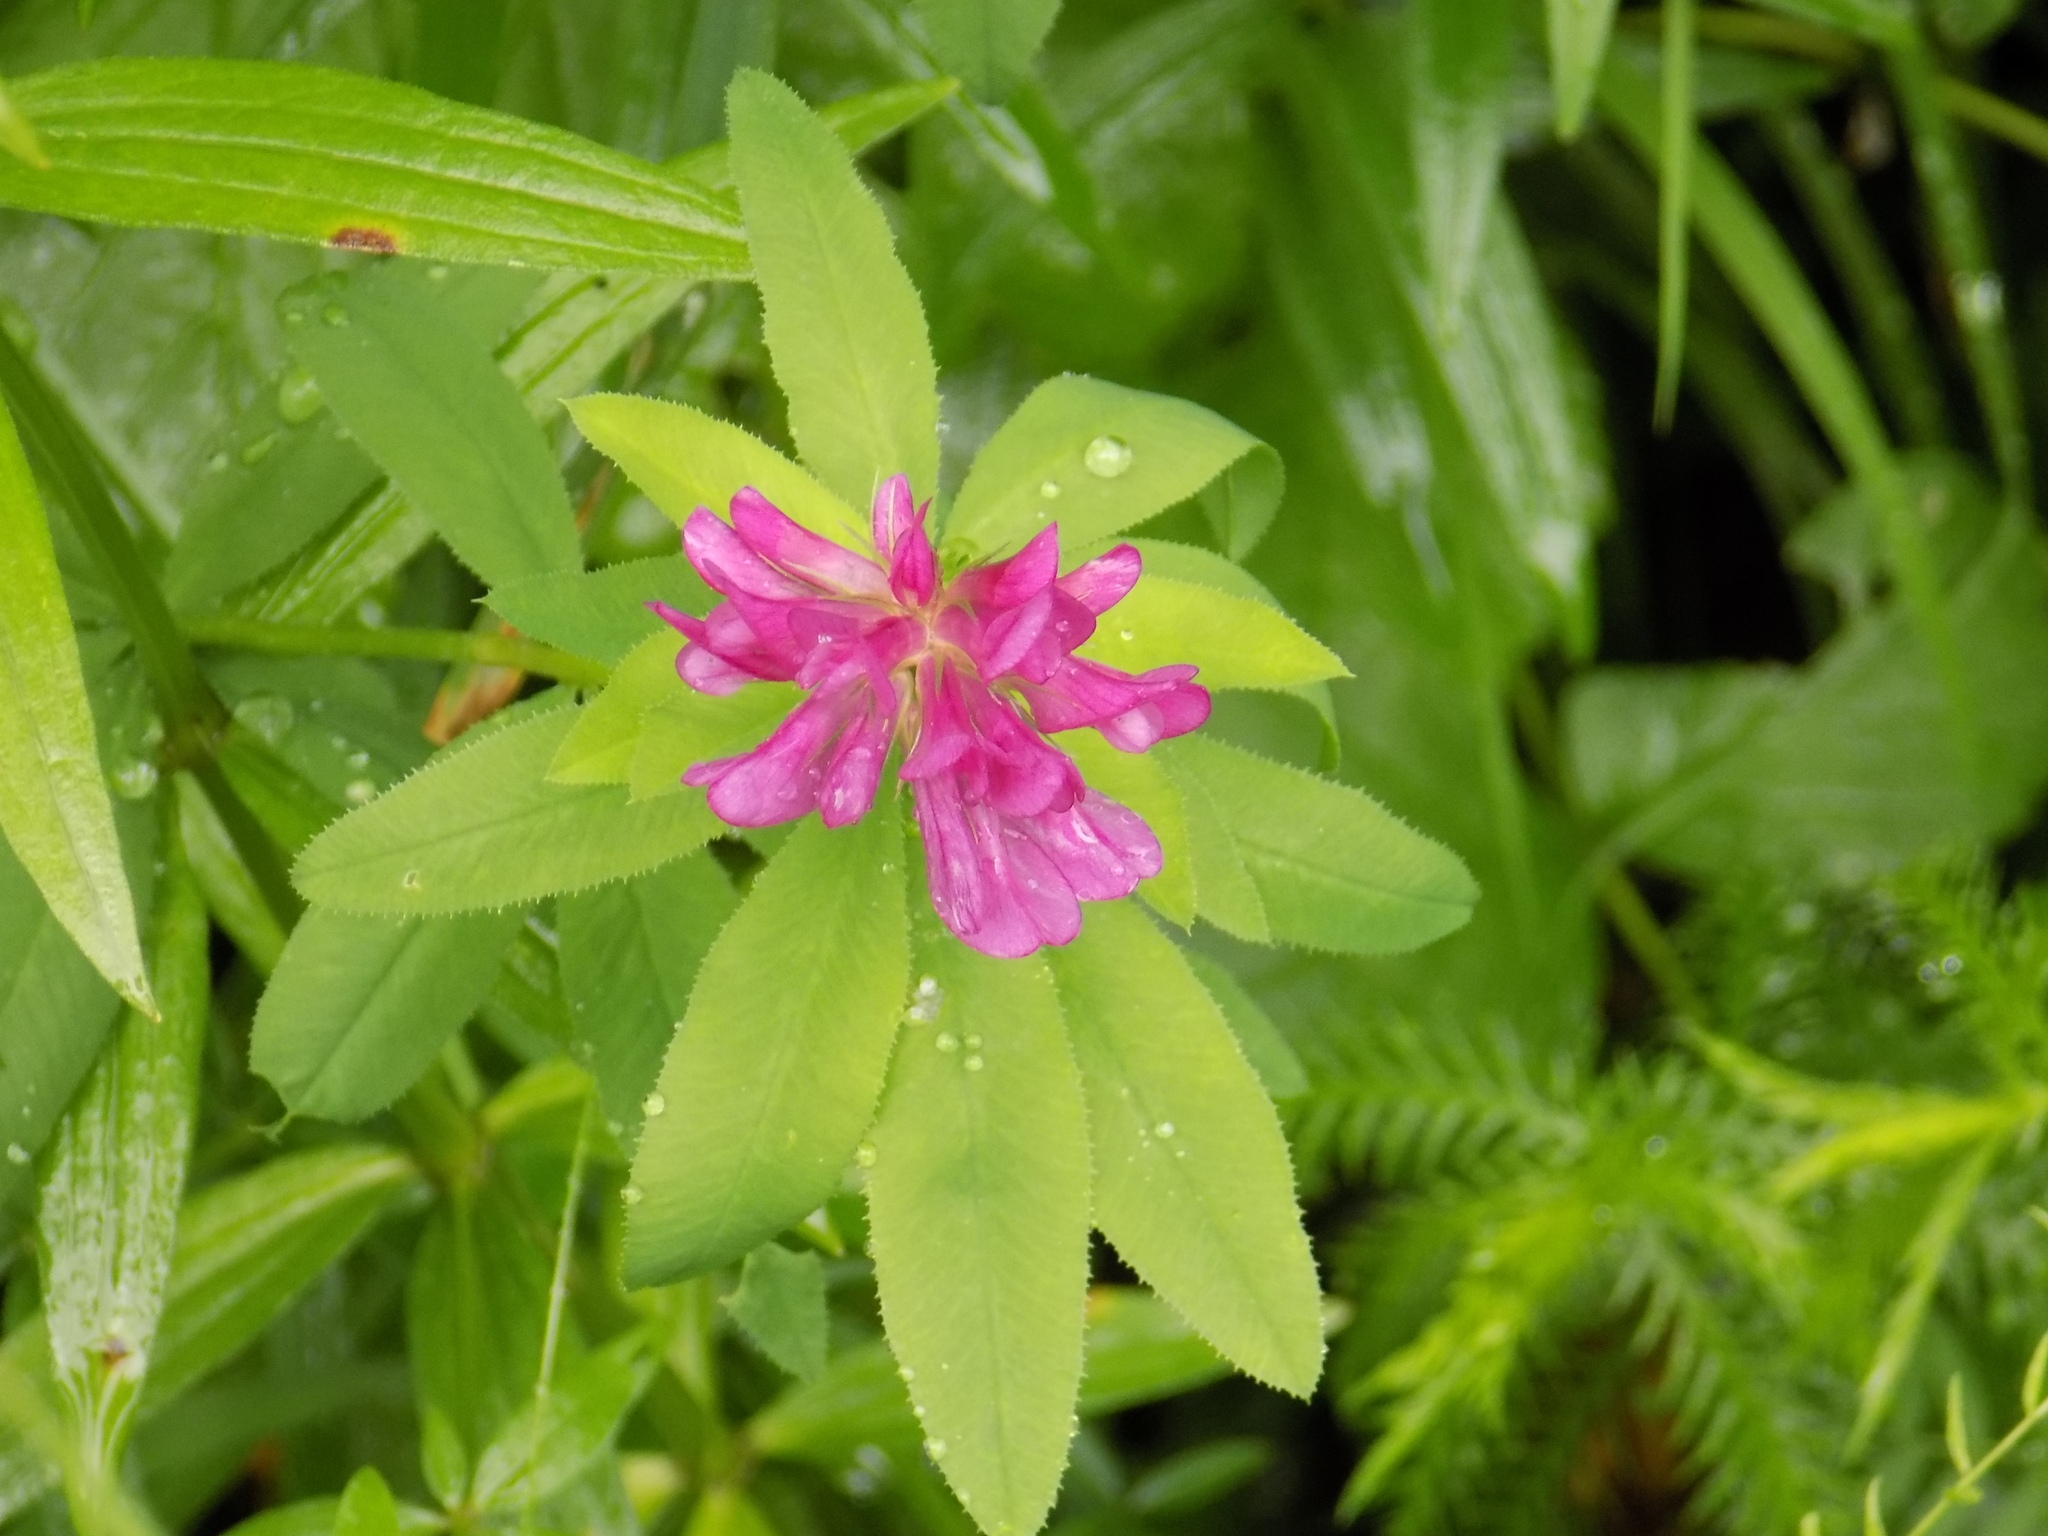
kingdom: Plantae
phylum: Tracheophyta
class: Magnoliopsida
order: Fabales
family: Fabaceae
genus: Trifolium
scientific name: Trifolium lupinaster
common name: Lupine clover
